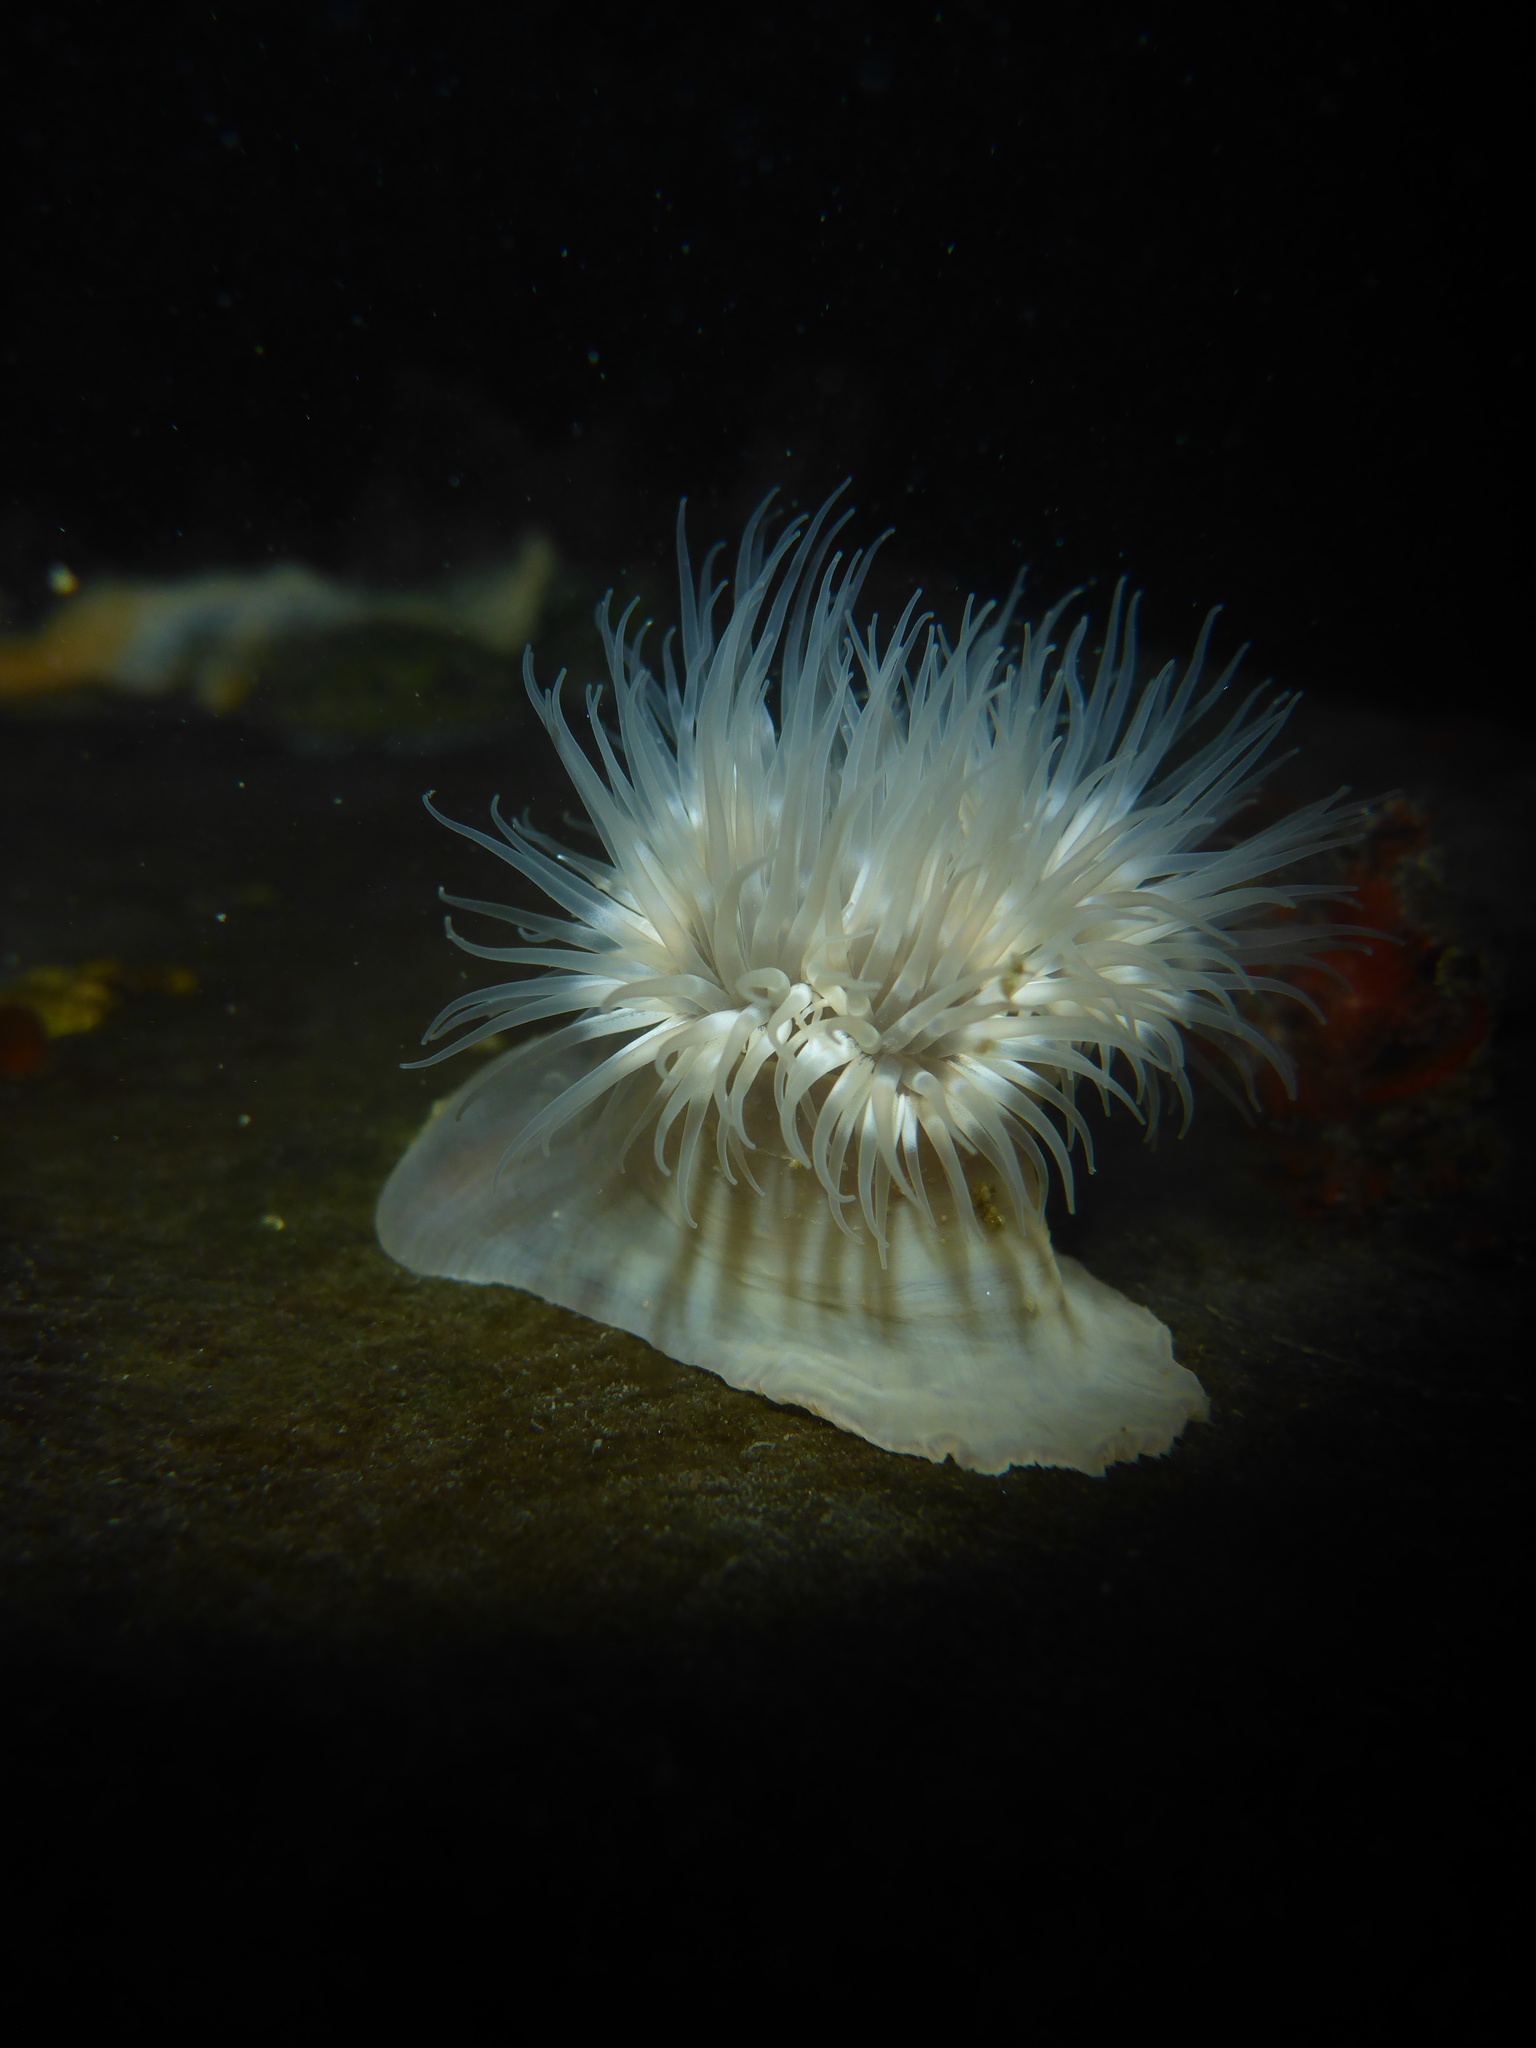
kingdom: Animalia
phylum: Cnidaria
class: Anthozoa
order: Actiniaria
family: Metridiidae
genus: Metridium
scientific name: Metridium senile
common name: Clonal plumose anemone
